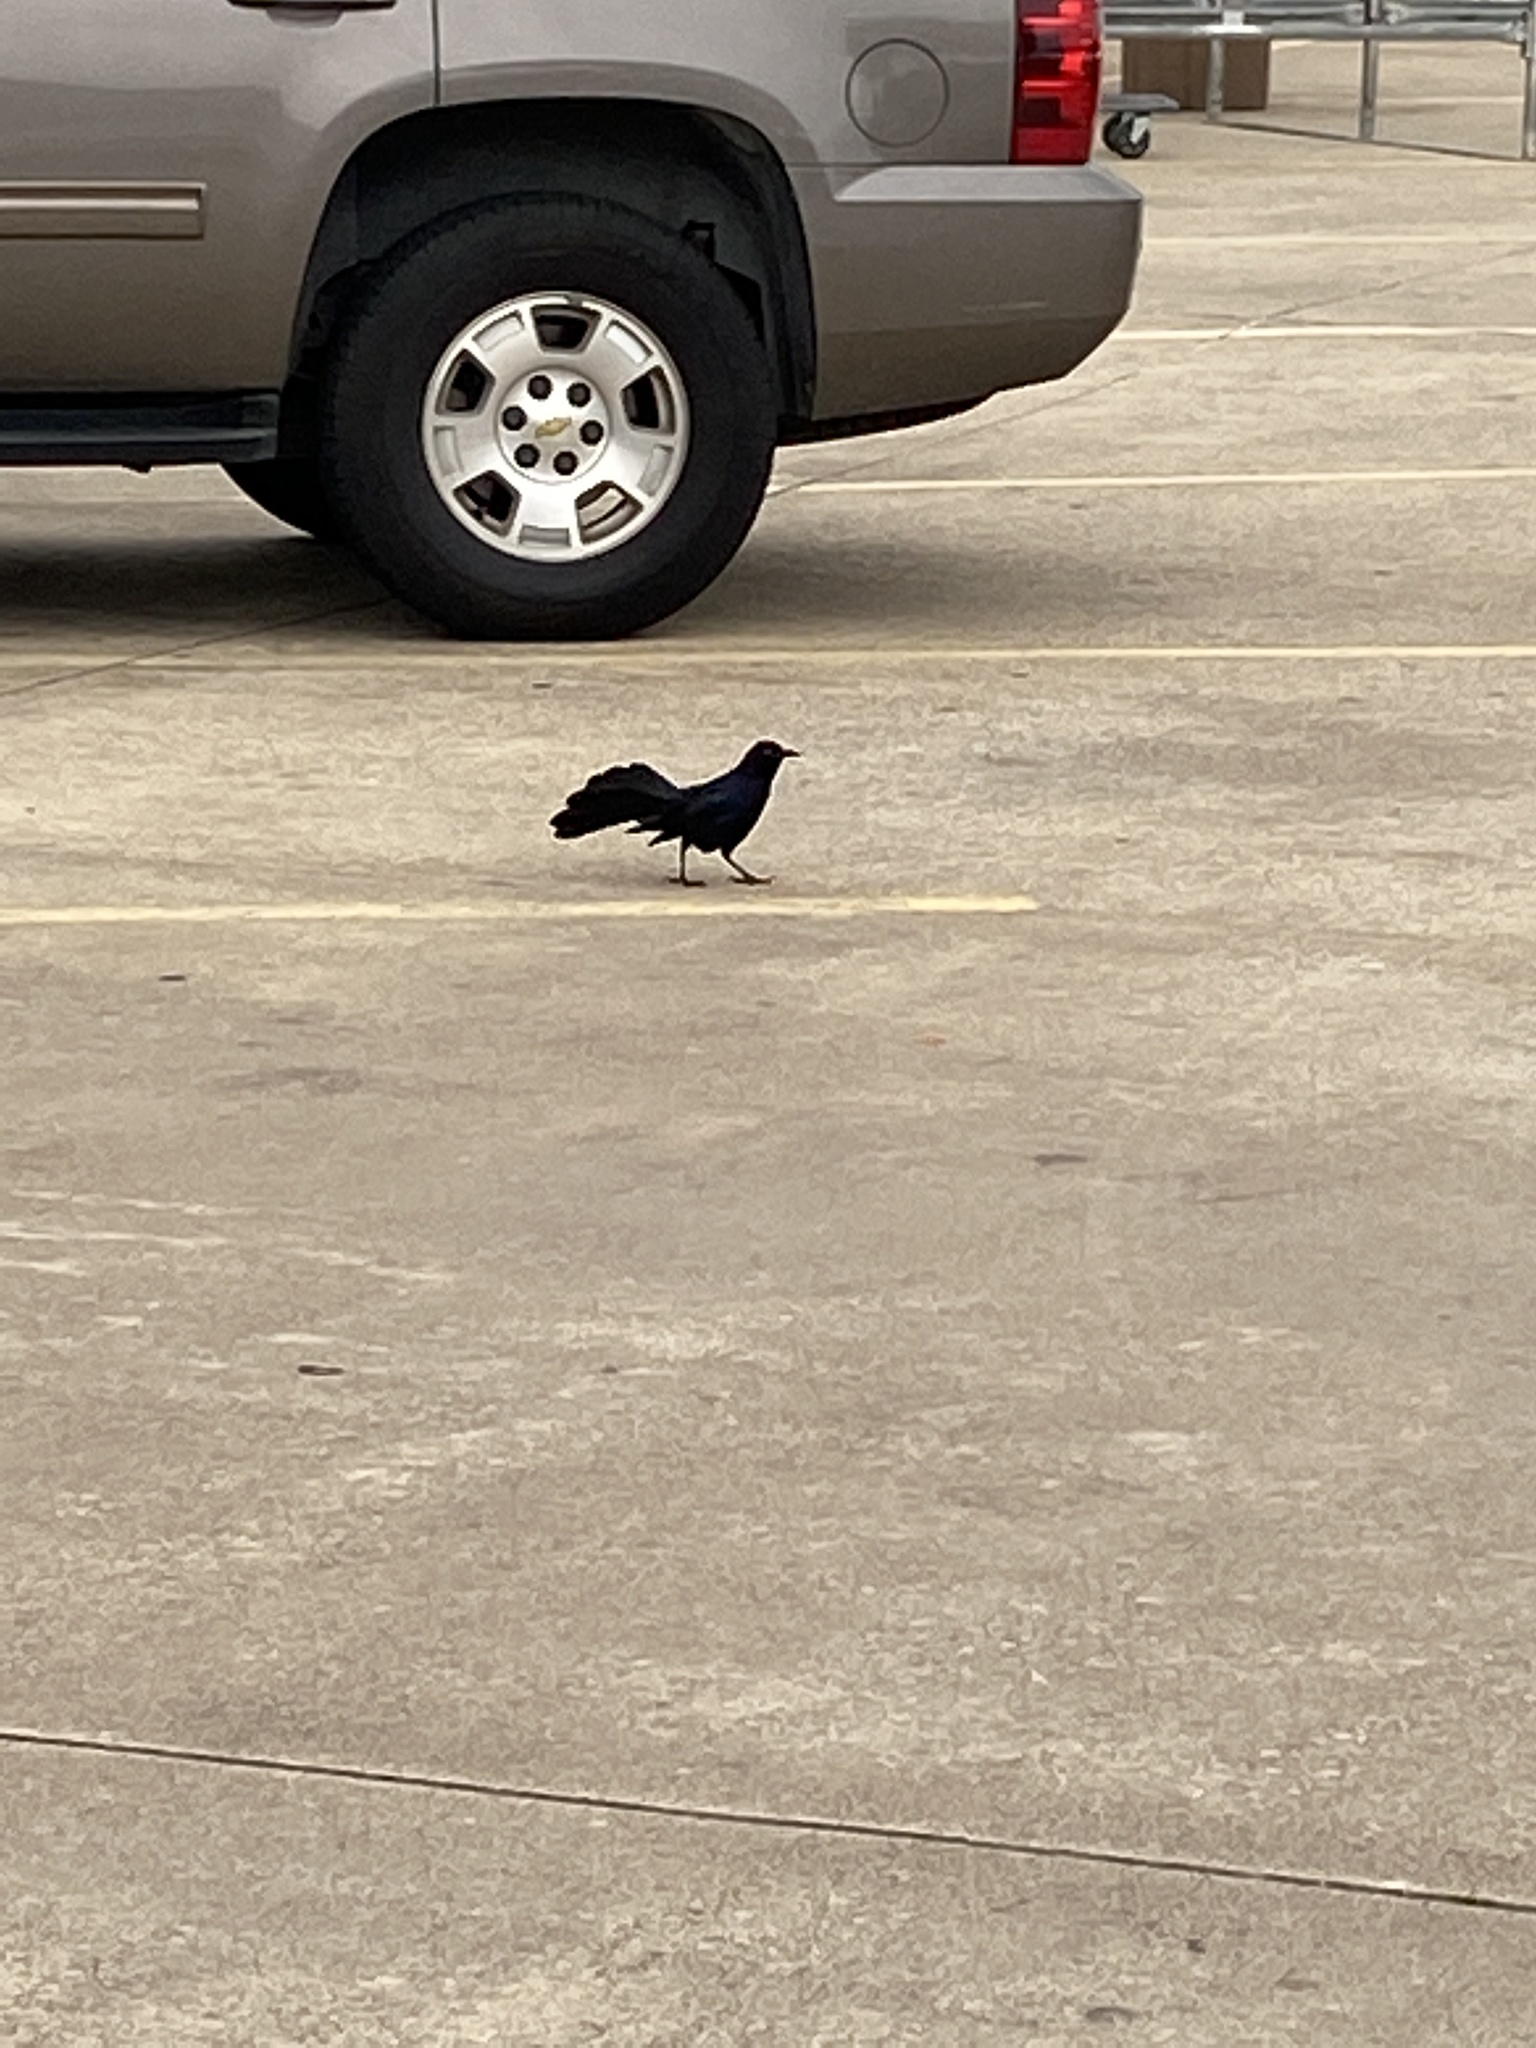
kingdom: Animalia
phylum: Chordata
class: Aves
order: Passeriformes
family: Icteridae
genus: Quiscalus
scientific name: Quiscalus mexicanus
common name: Great-tailed grackle
